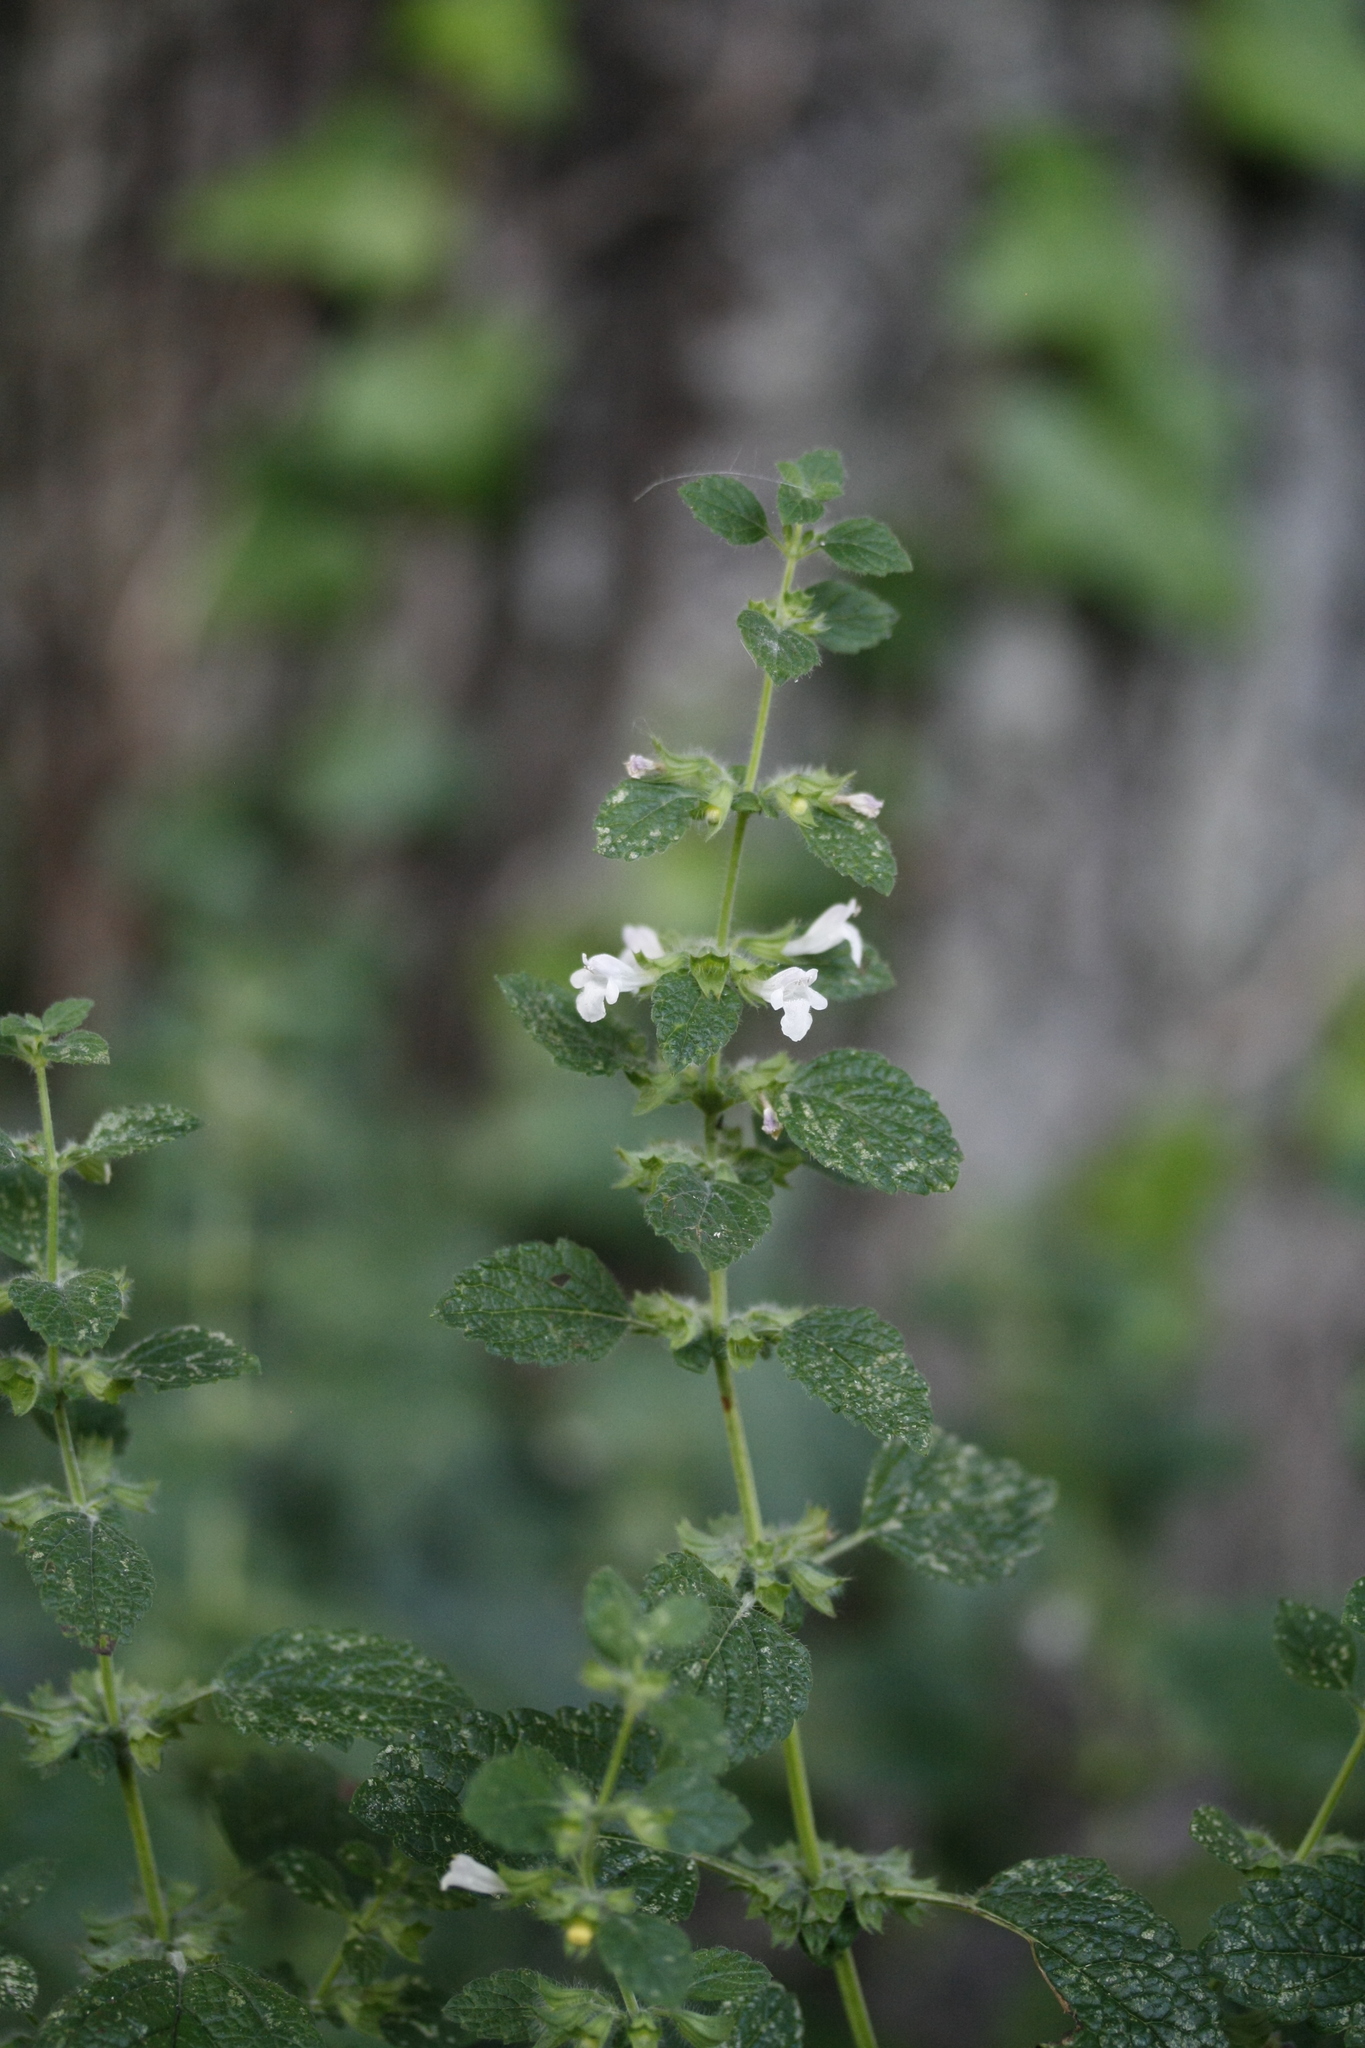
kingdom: Plantae
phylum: Tracheophyta
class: Magnoliopsida
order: Lamiales
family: Lamiaceae
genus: Melissa
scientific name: Melissa officinalis
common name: Balm
